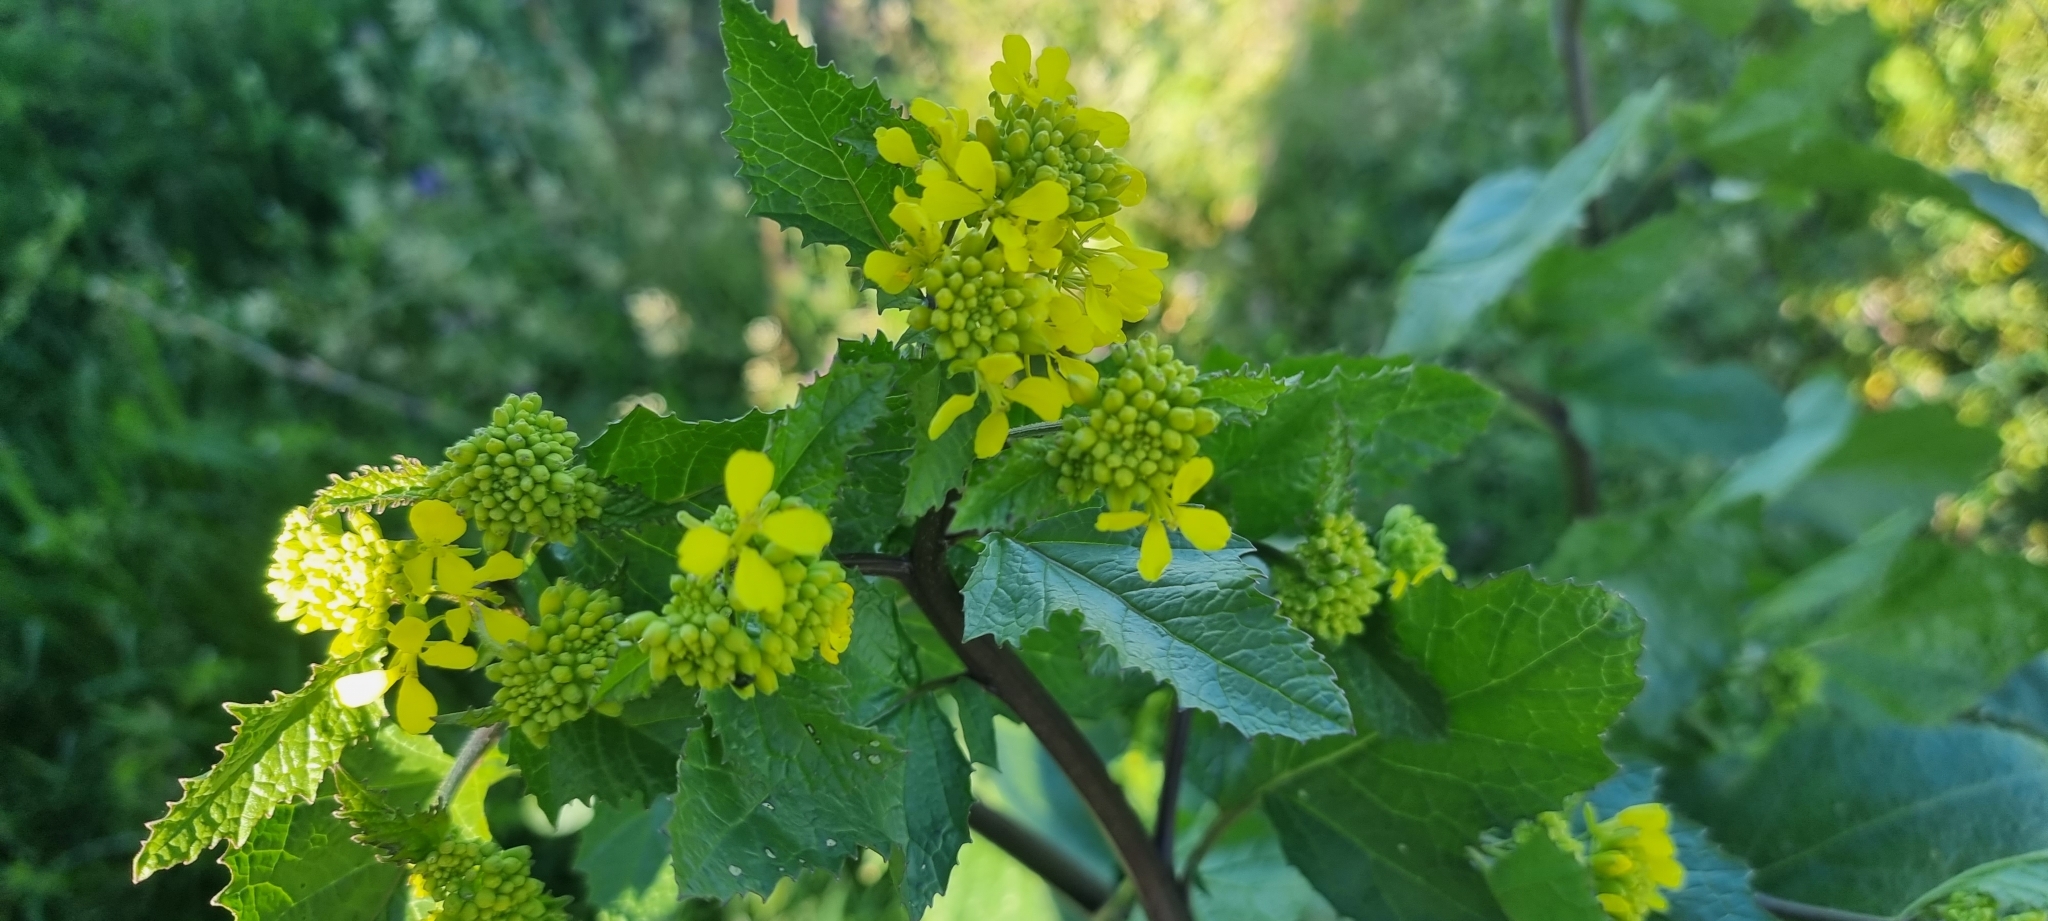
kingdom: Plantae
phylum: Tracheophyta
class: Magnoliopsida
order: Brassicales
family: Brassicaceae
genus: Sinapis
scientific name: Sinapis arvensis
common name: Charlock
